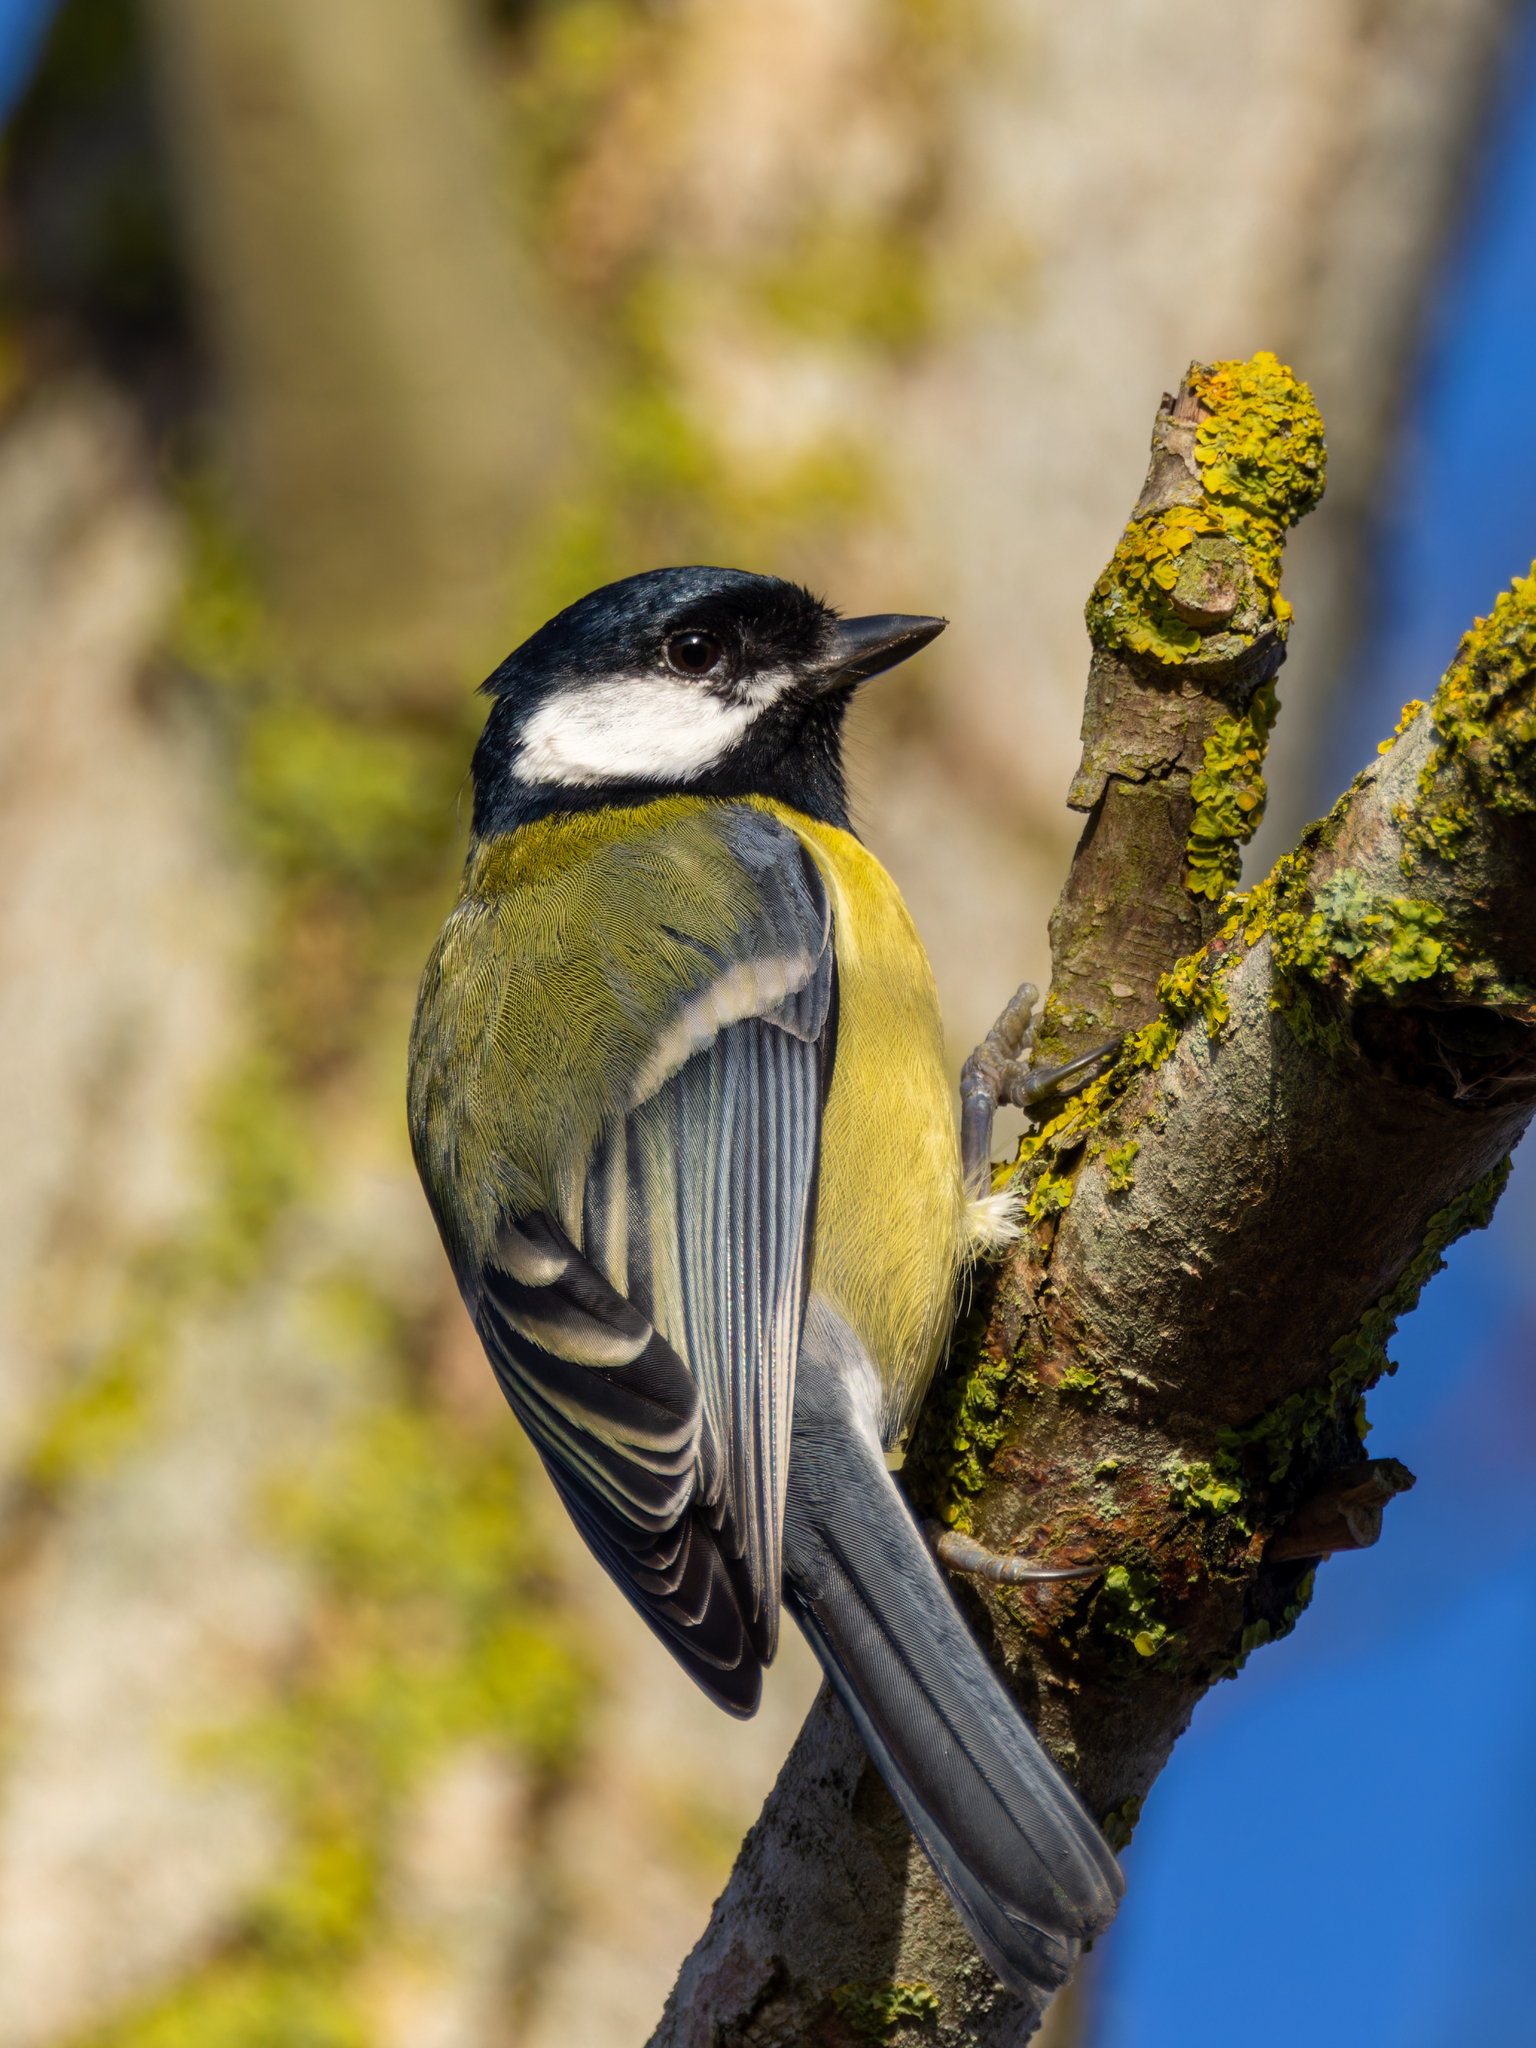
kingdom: Animalia
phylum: Chordata
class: Aves
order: Passeriformes
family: Paridae
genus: Parus
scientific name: Parus major
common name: Great tit
